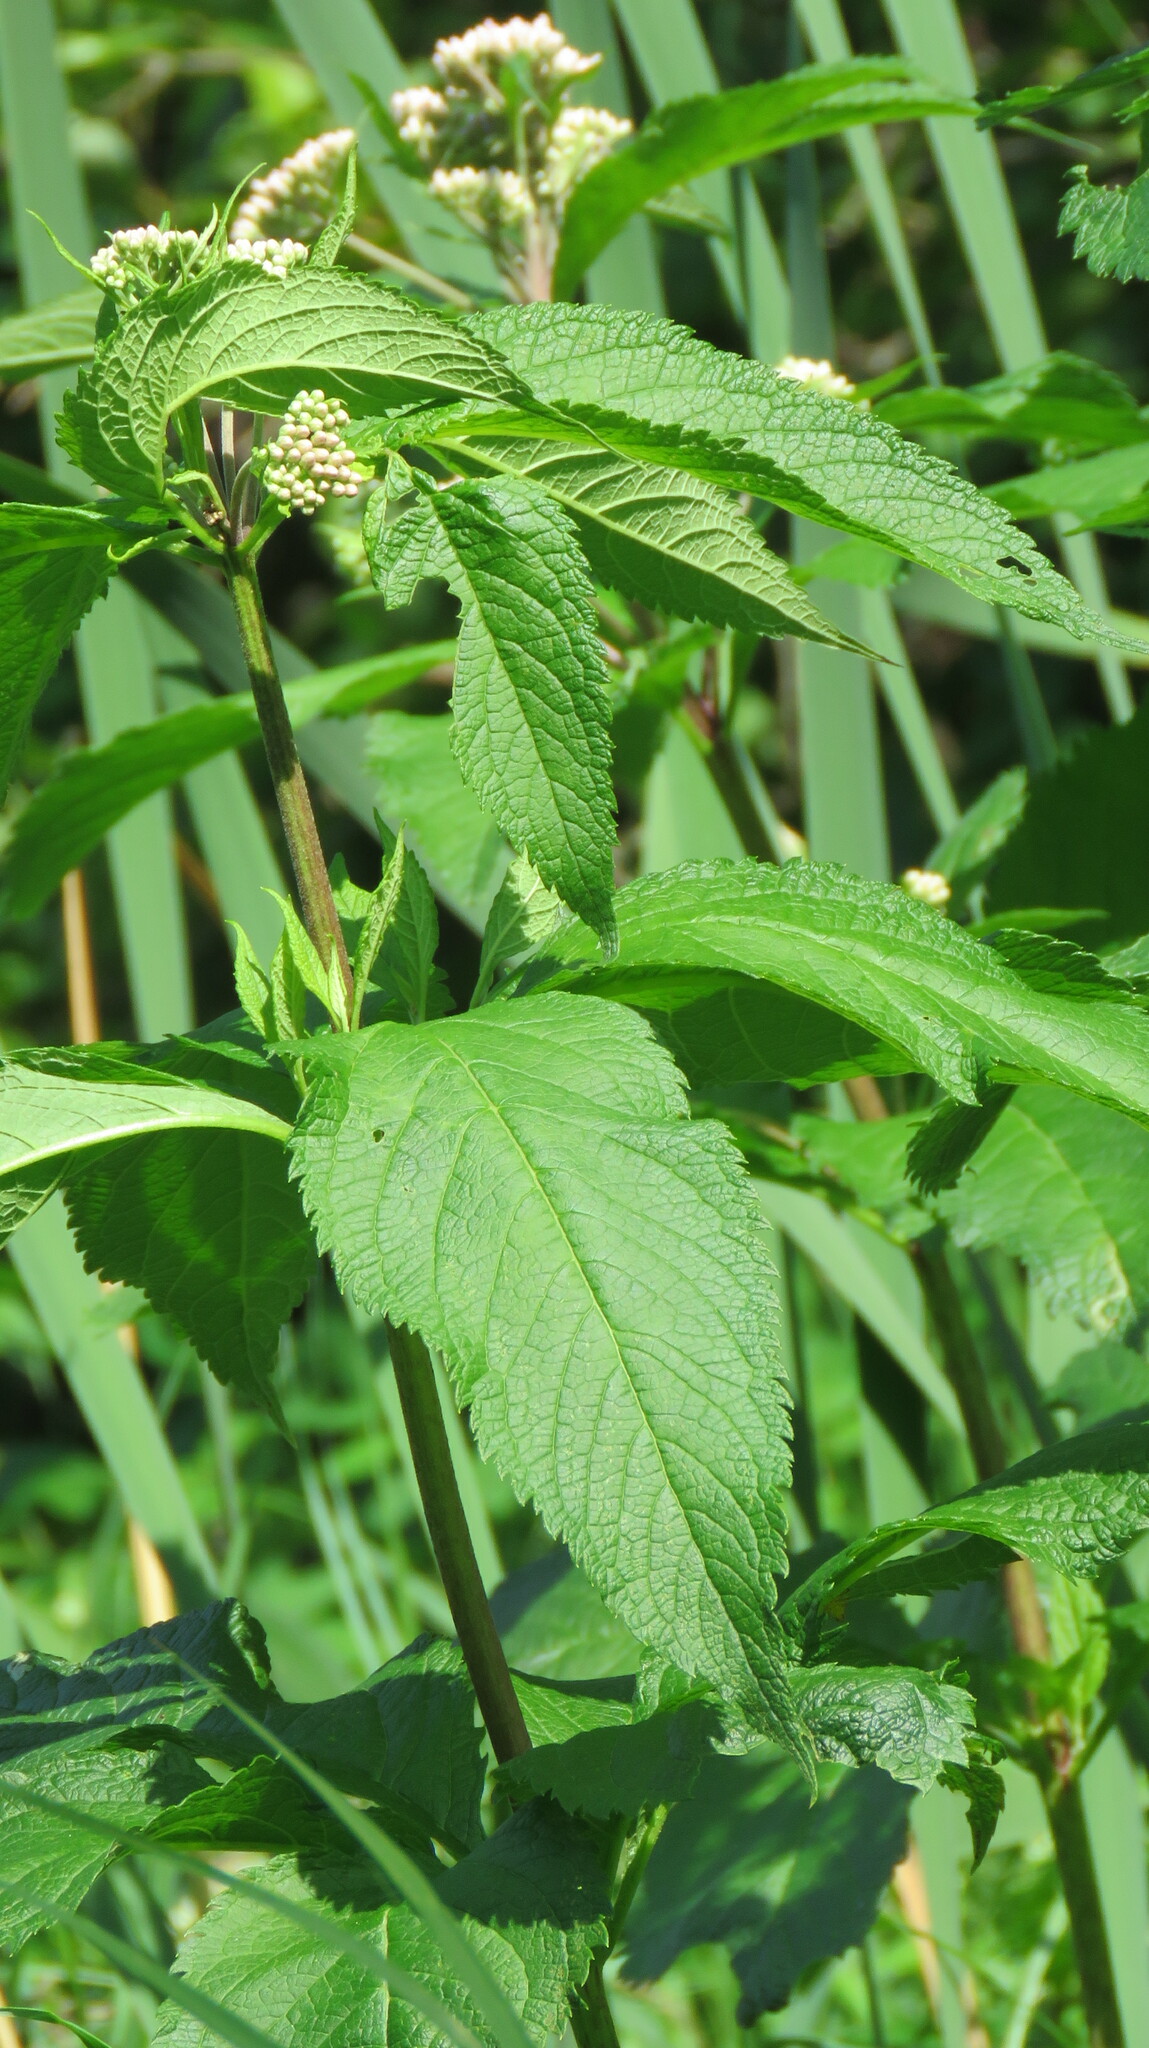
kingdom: Plantae
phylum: Tracheophyta
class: Magnoliopsida
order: Asterales
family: Asteraceae
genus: Eutrochium
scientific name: Eutrochium maculatum
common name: Spotted joe pye weed
